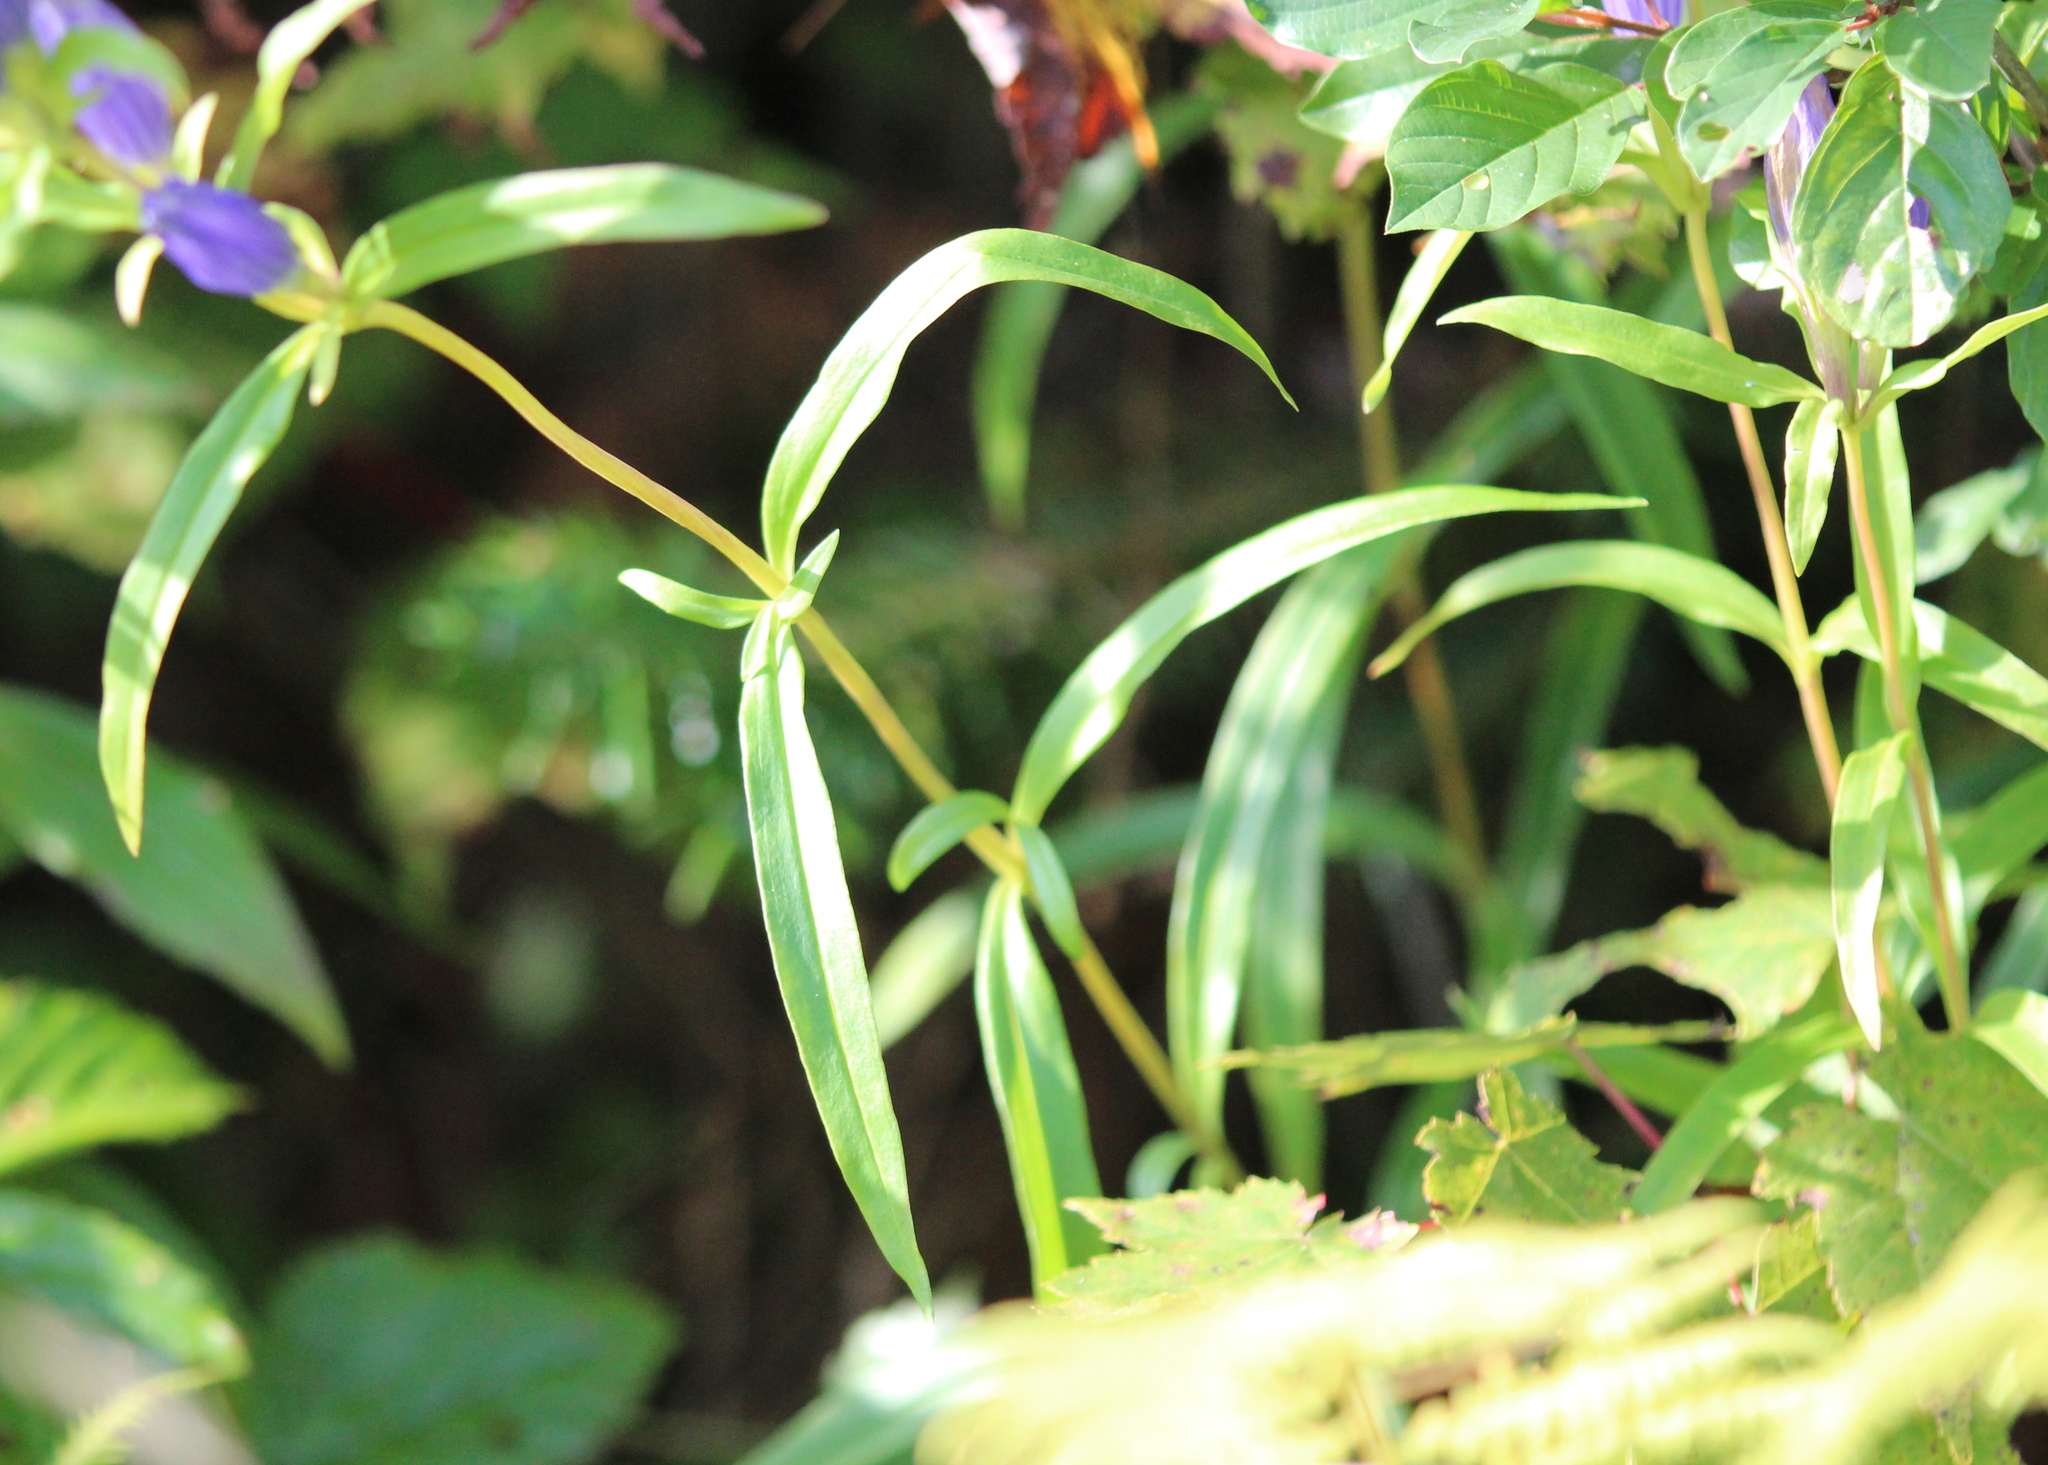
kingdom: Plantae
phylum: Tracheophyta
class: Magnoliopsida
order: Gentianales
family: Gentianaceae
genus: Gentiana
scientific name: Gentiana linearis
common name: Bastard gentian
